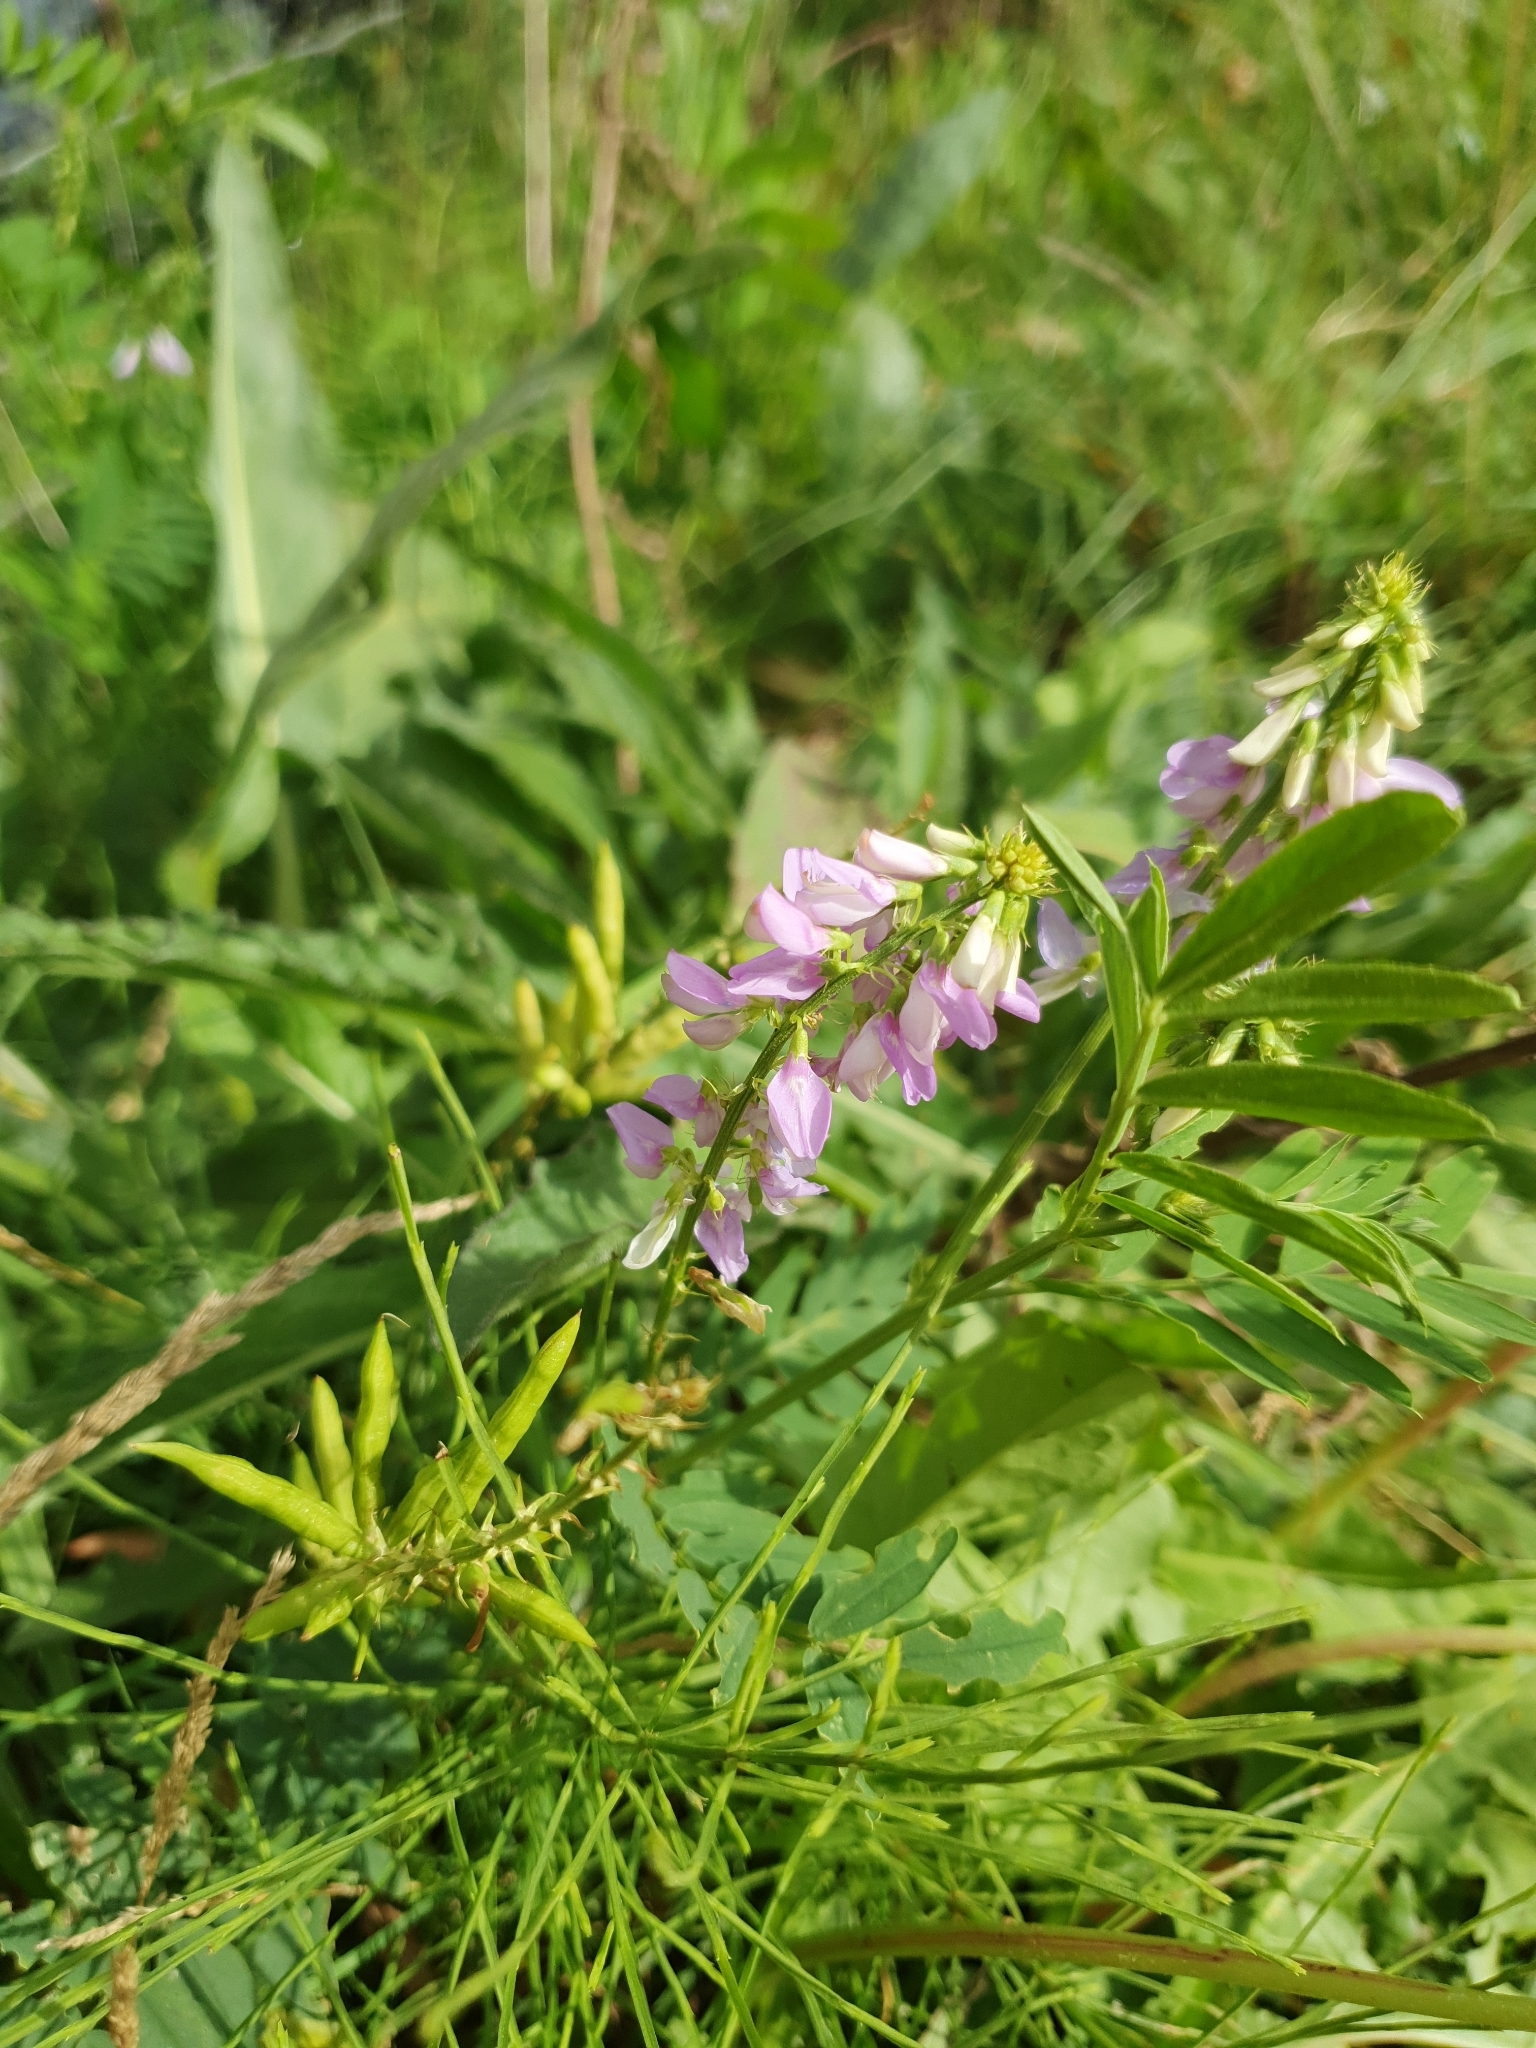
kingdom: Plantae
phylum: Tracheophyta
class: Magnoliopsida
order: Fabales
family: Fabaceae
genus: Galega
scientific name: Galega officinalis
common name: Goat's-rue
